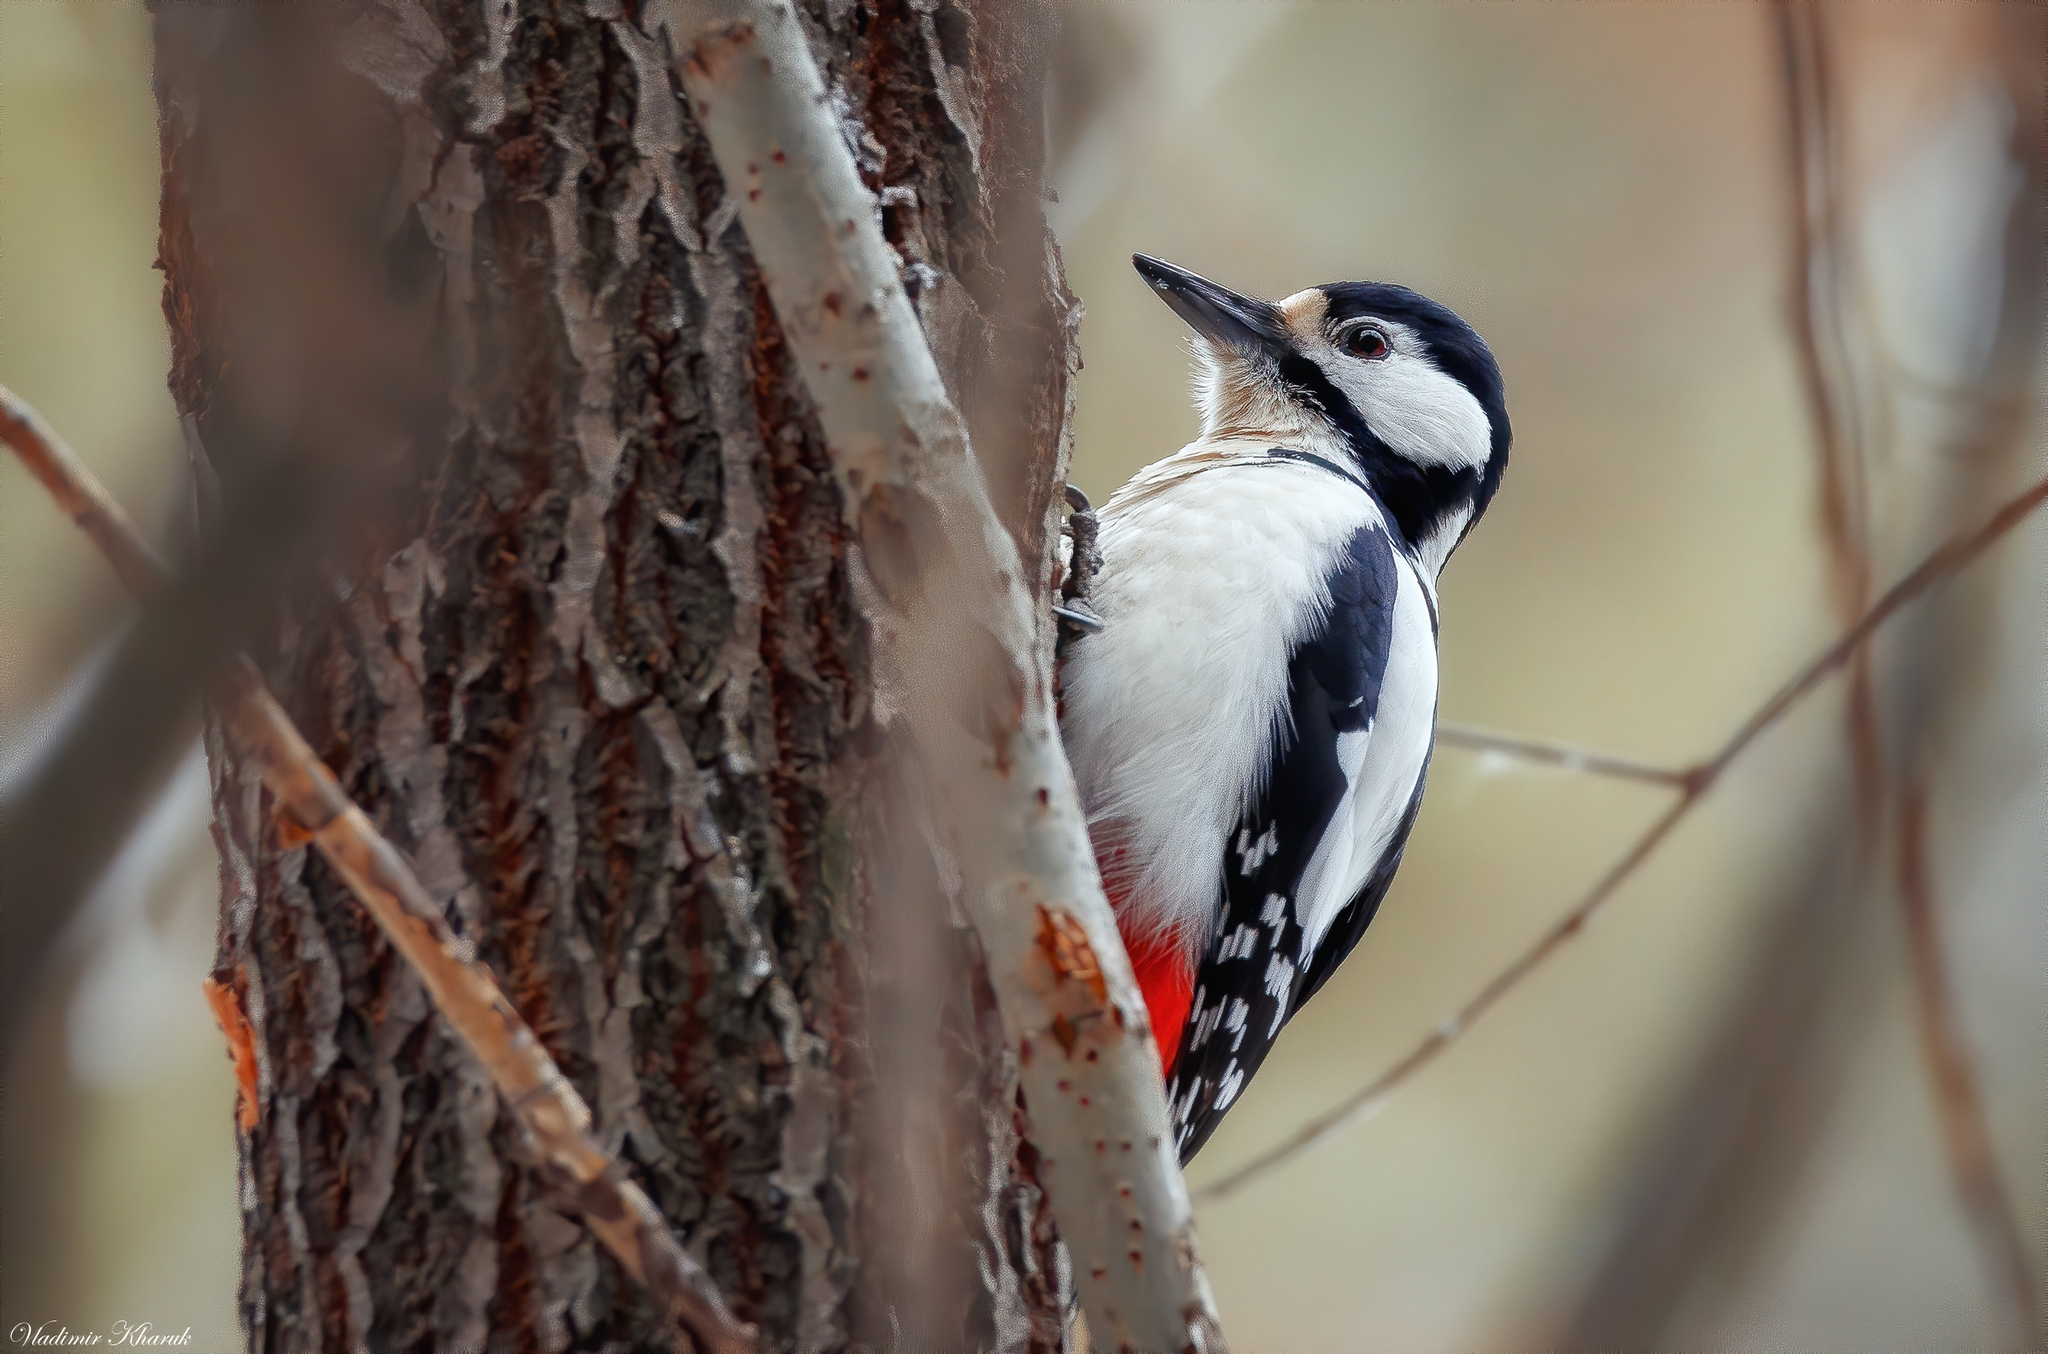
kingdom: Animalia
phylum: Chordata
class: Aves
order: Piciformes
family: Picidae
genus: Dendrocopos
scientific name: Dendrocopos major
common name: Great spotted woodpecker
